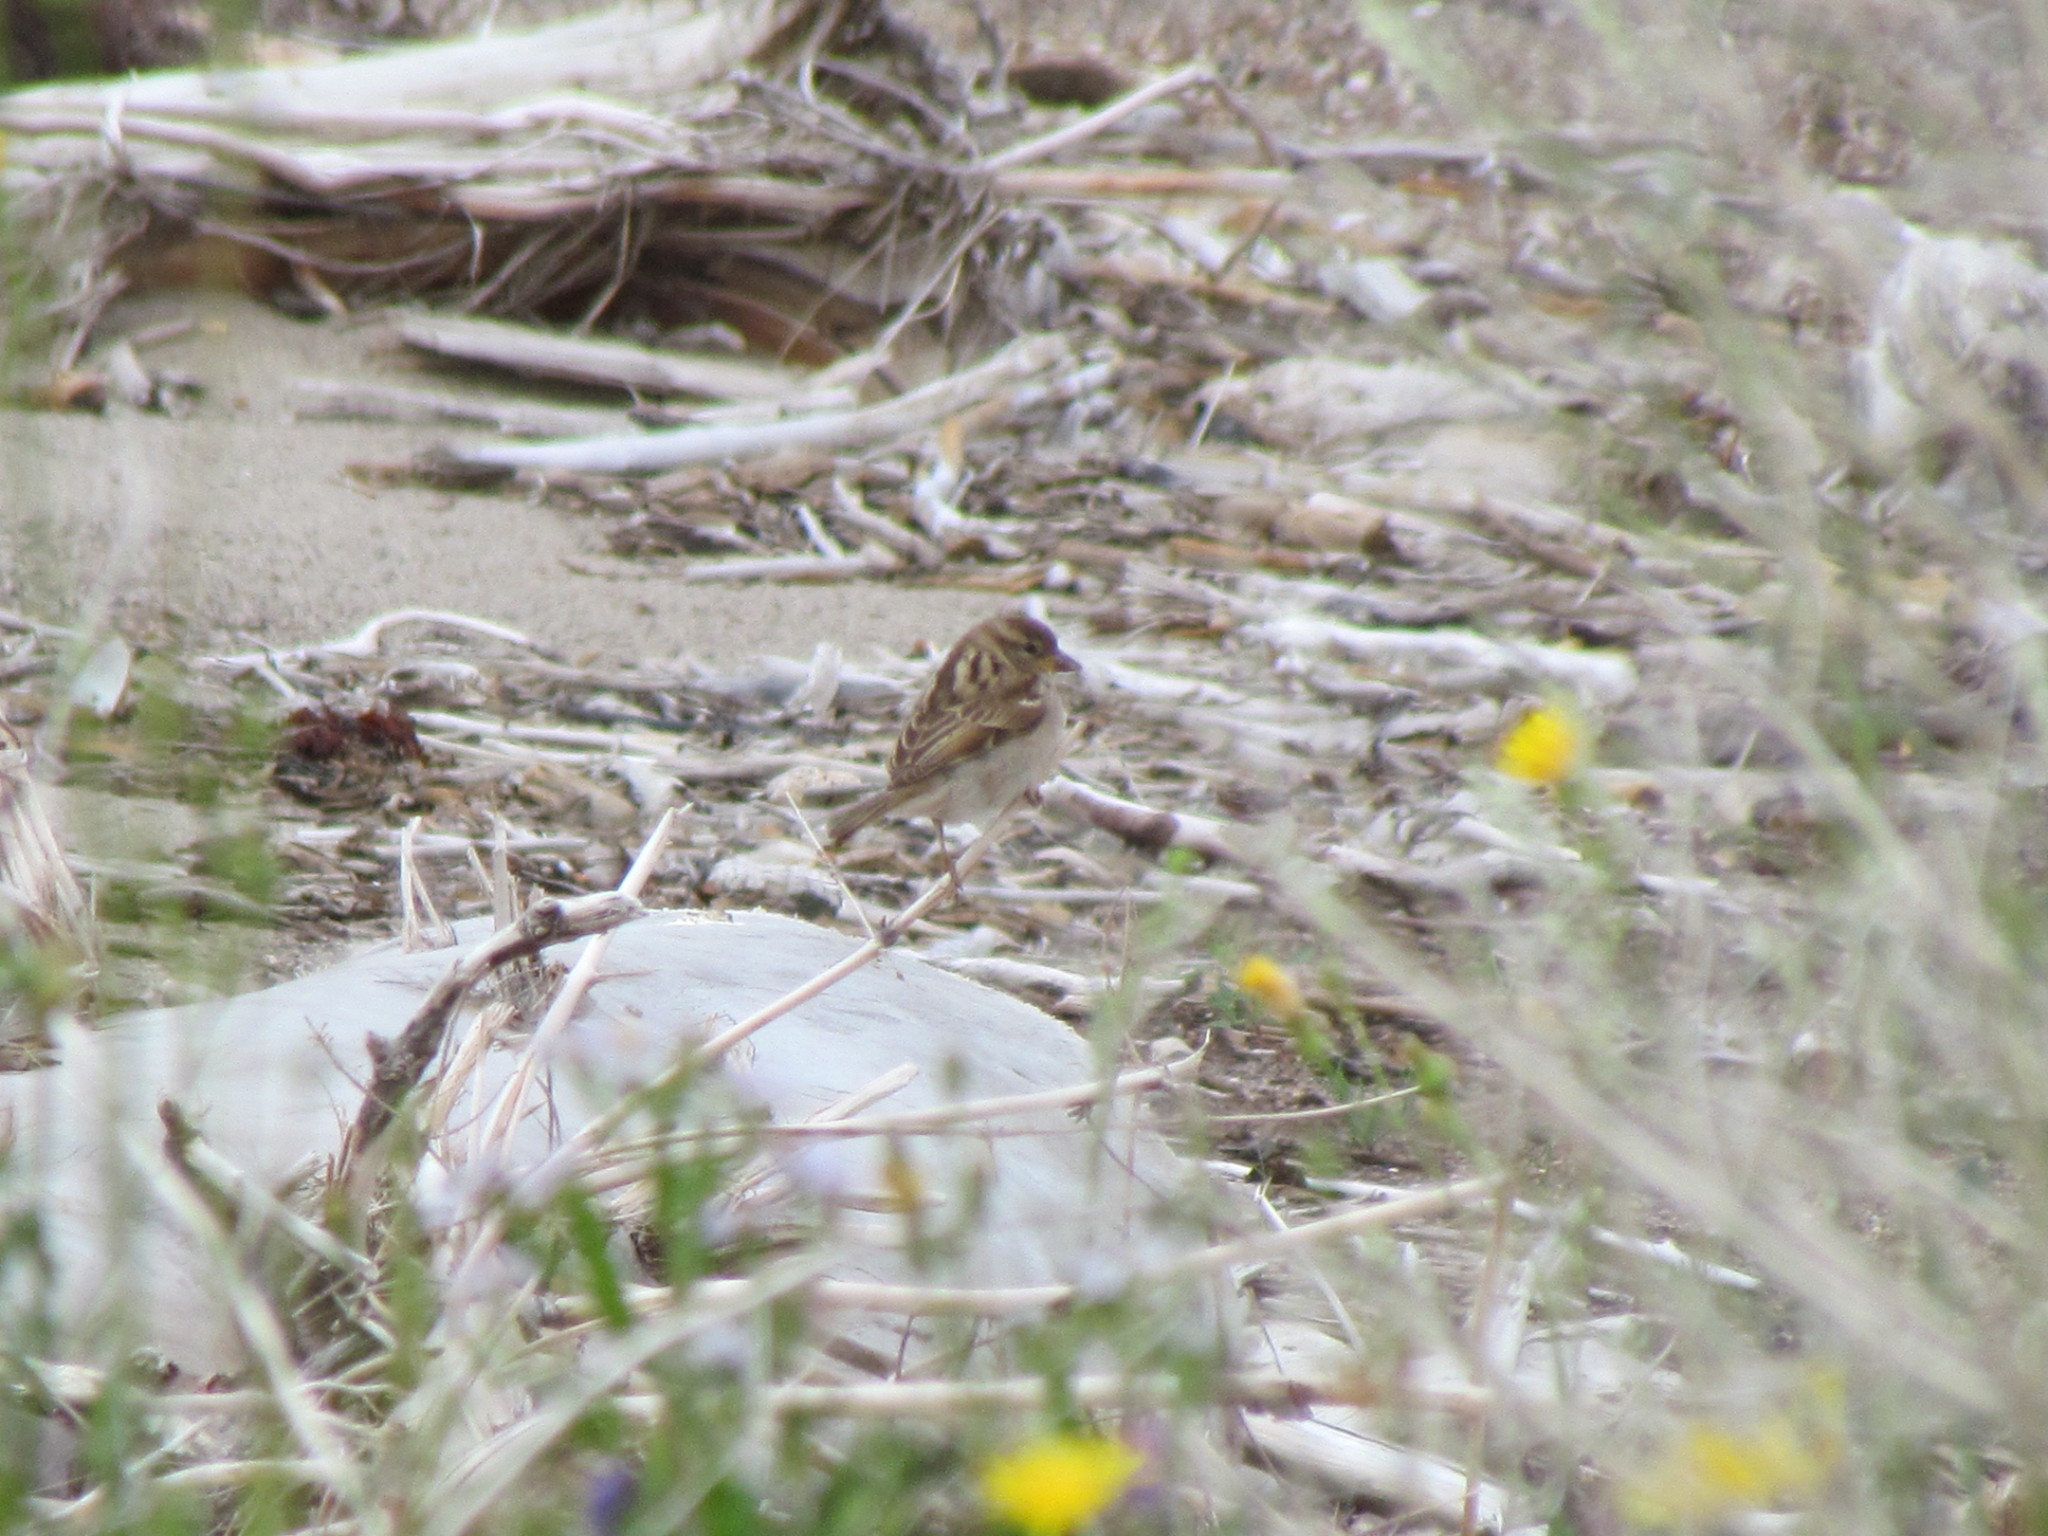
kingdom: Animalia
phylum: Chordata
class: Aves
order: Passeriformes
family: Passeridae
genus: Passer
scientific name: Passer domesticus
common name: House sparrow
